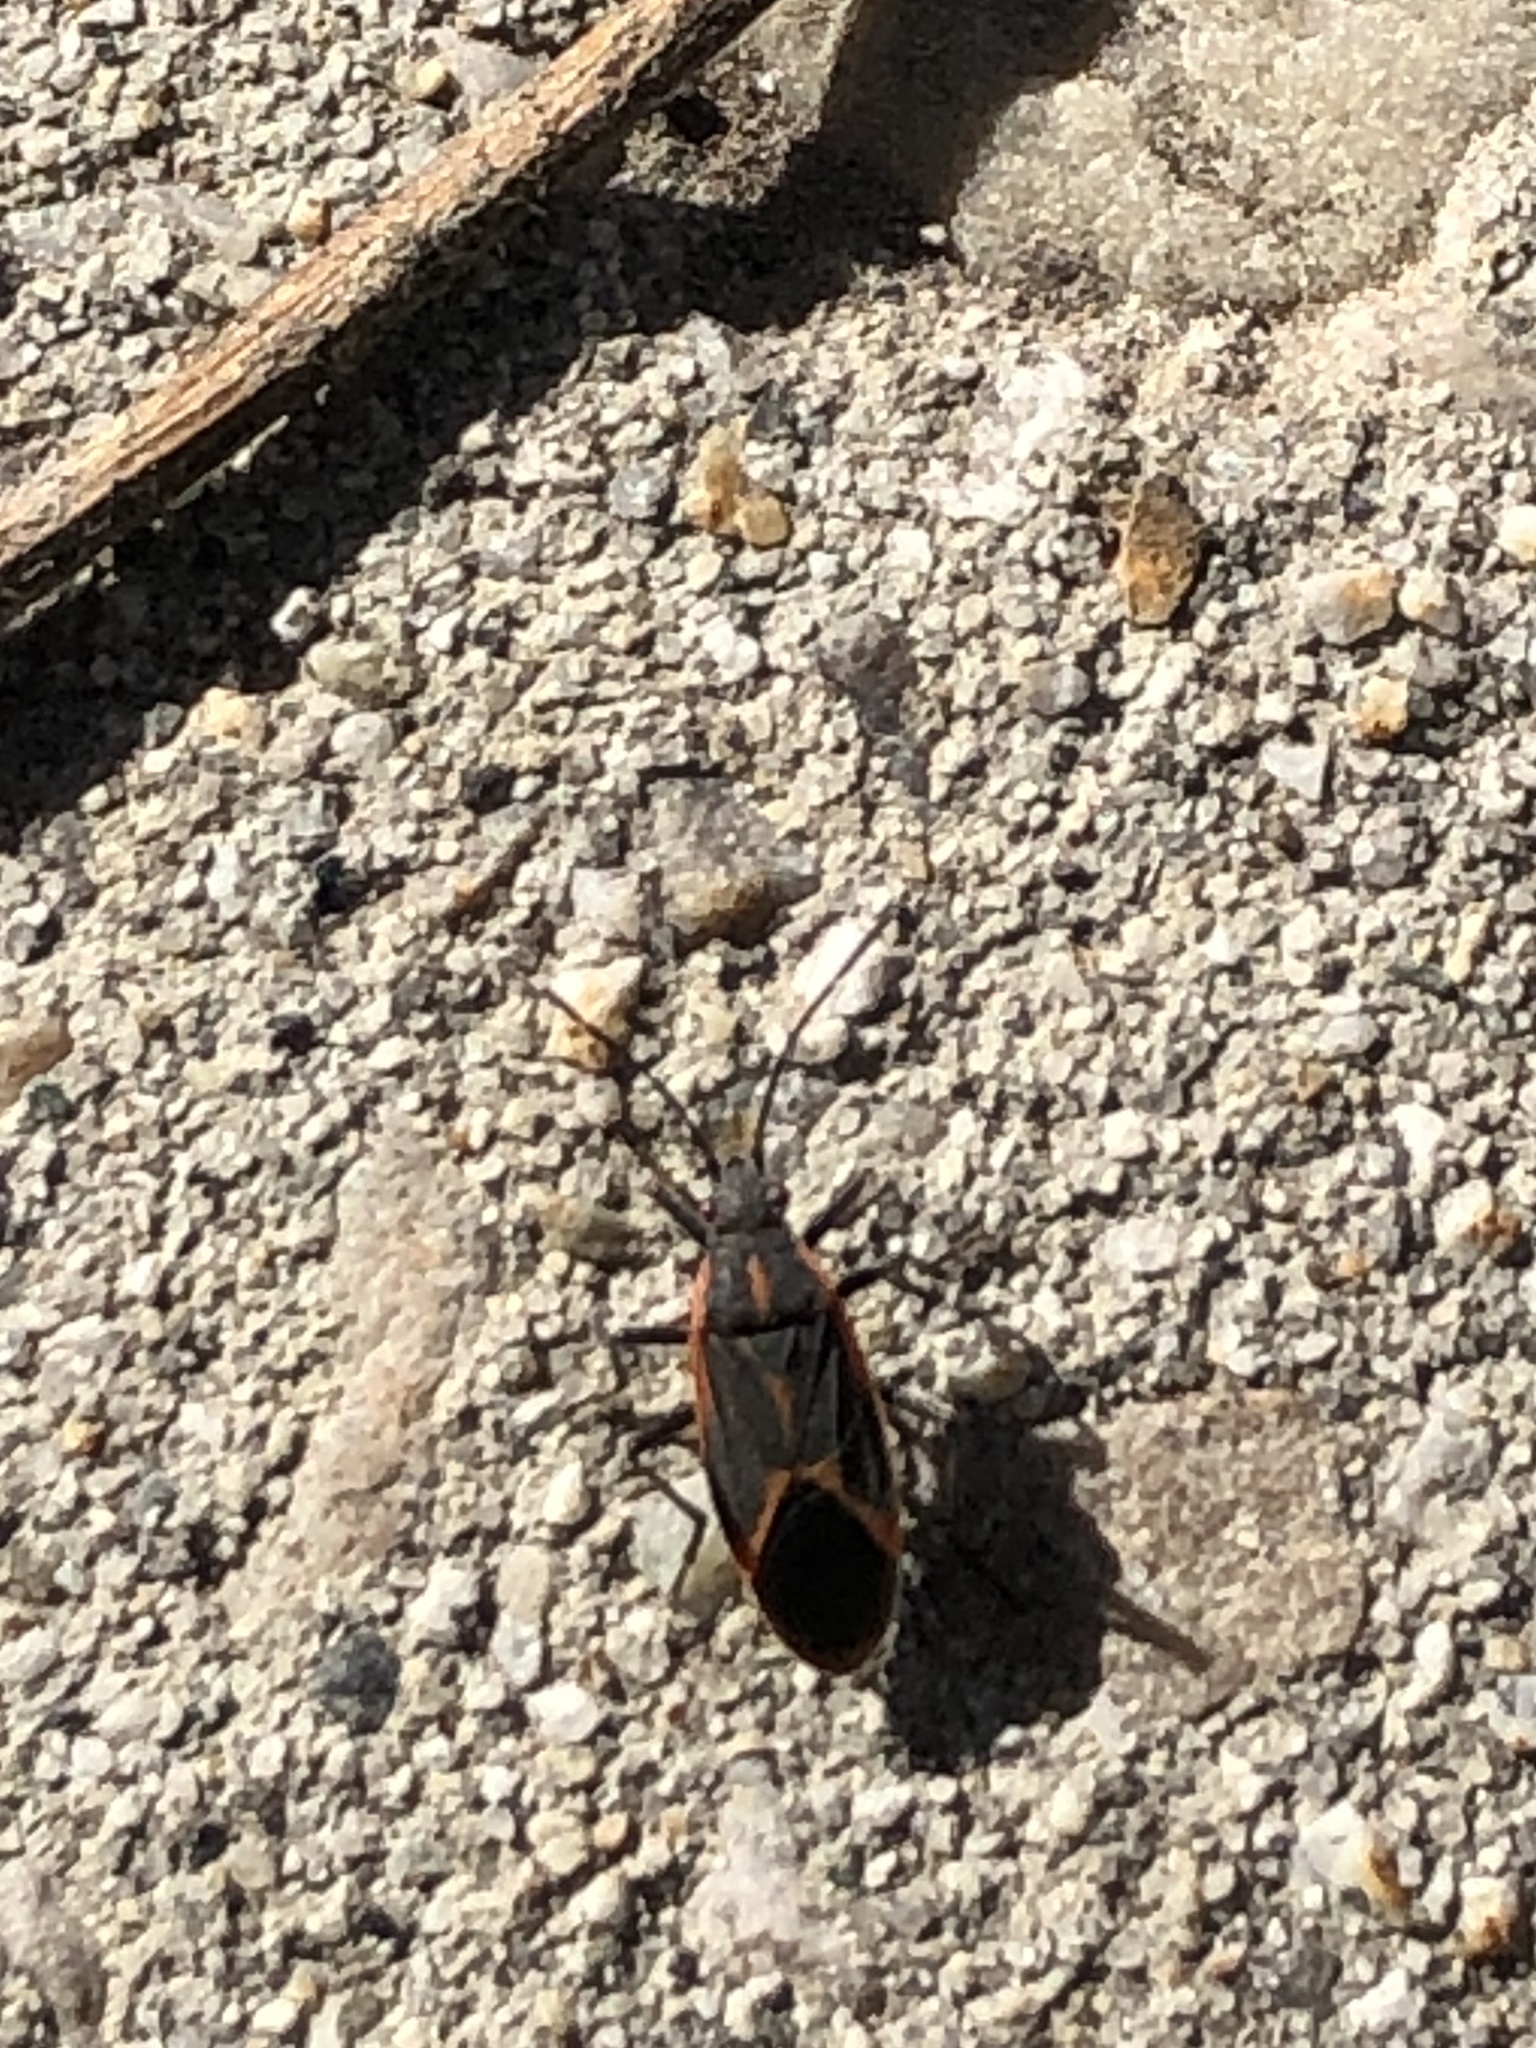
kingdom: Animalia
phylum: Arthropoda
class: Insecta
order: Hemiptera
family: Rhopalidae
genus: Boisea
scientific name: Boisea trivittata
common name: Boxelder bug
